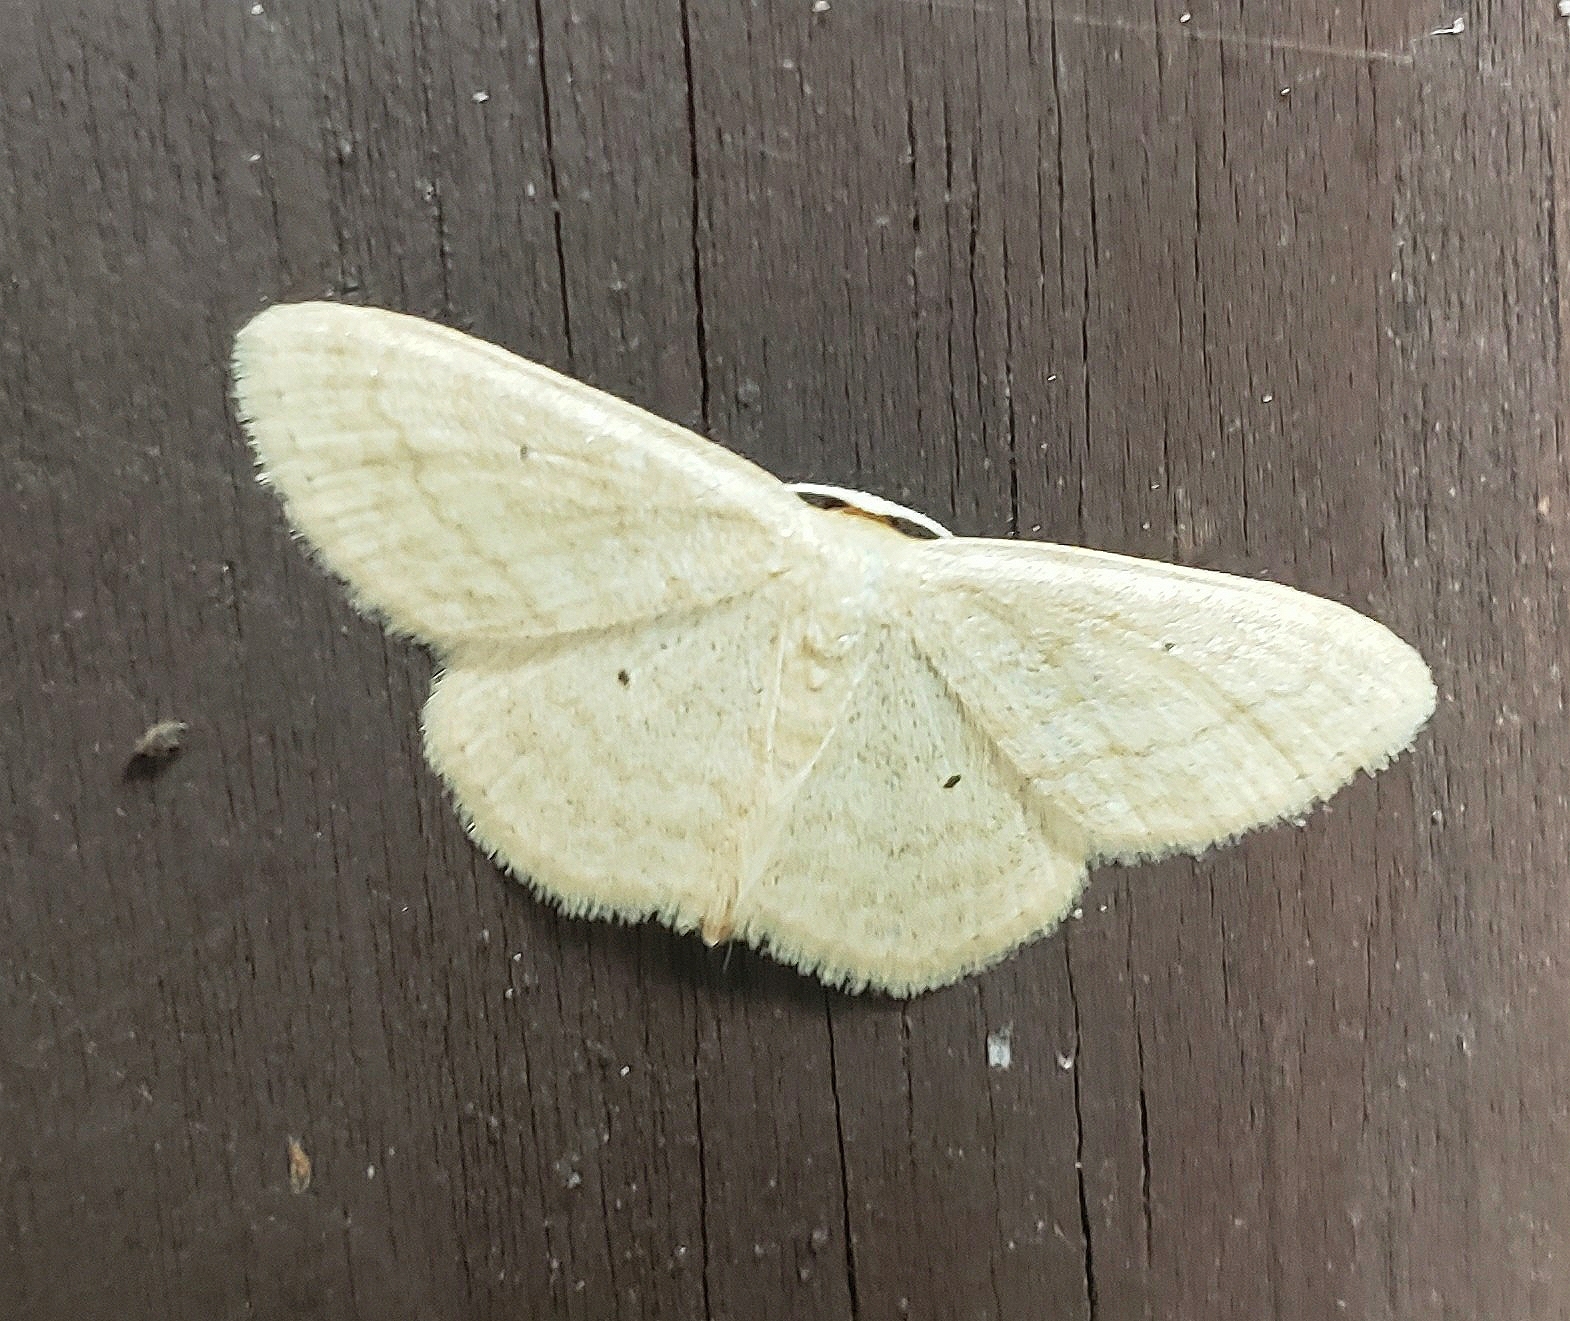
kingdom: Animalia
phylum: Arthropoda
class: Insecta
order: Lepidoptera
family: Geometridae
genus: Scopula
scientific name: Scopula inductata
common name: Soft-lined wave
